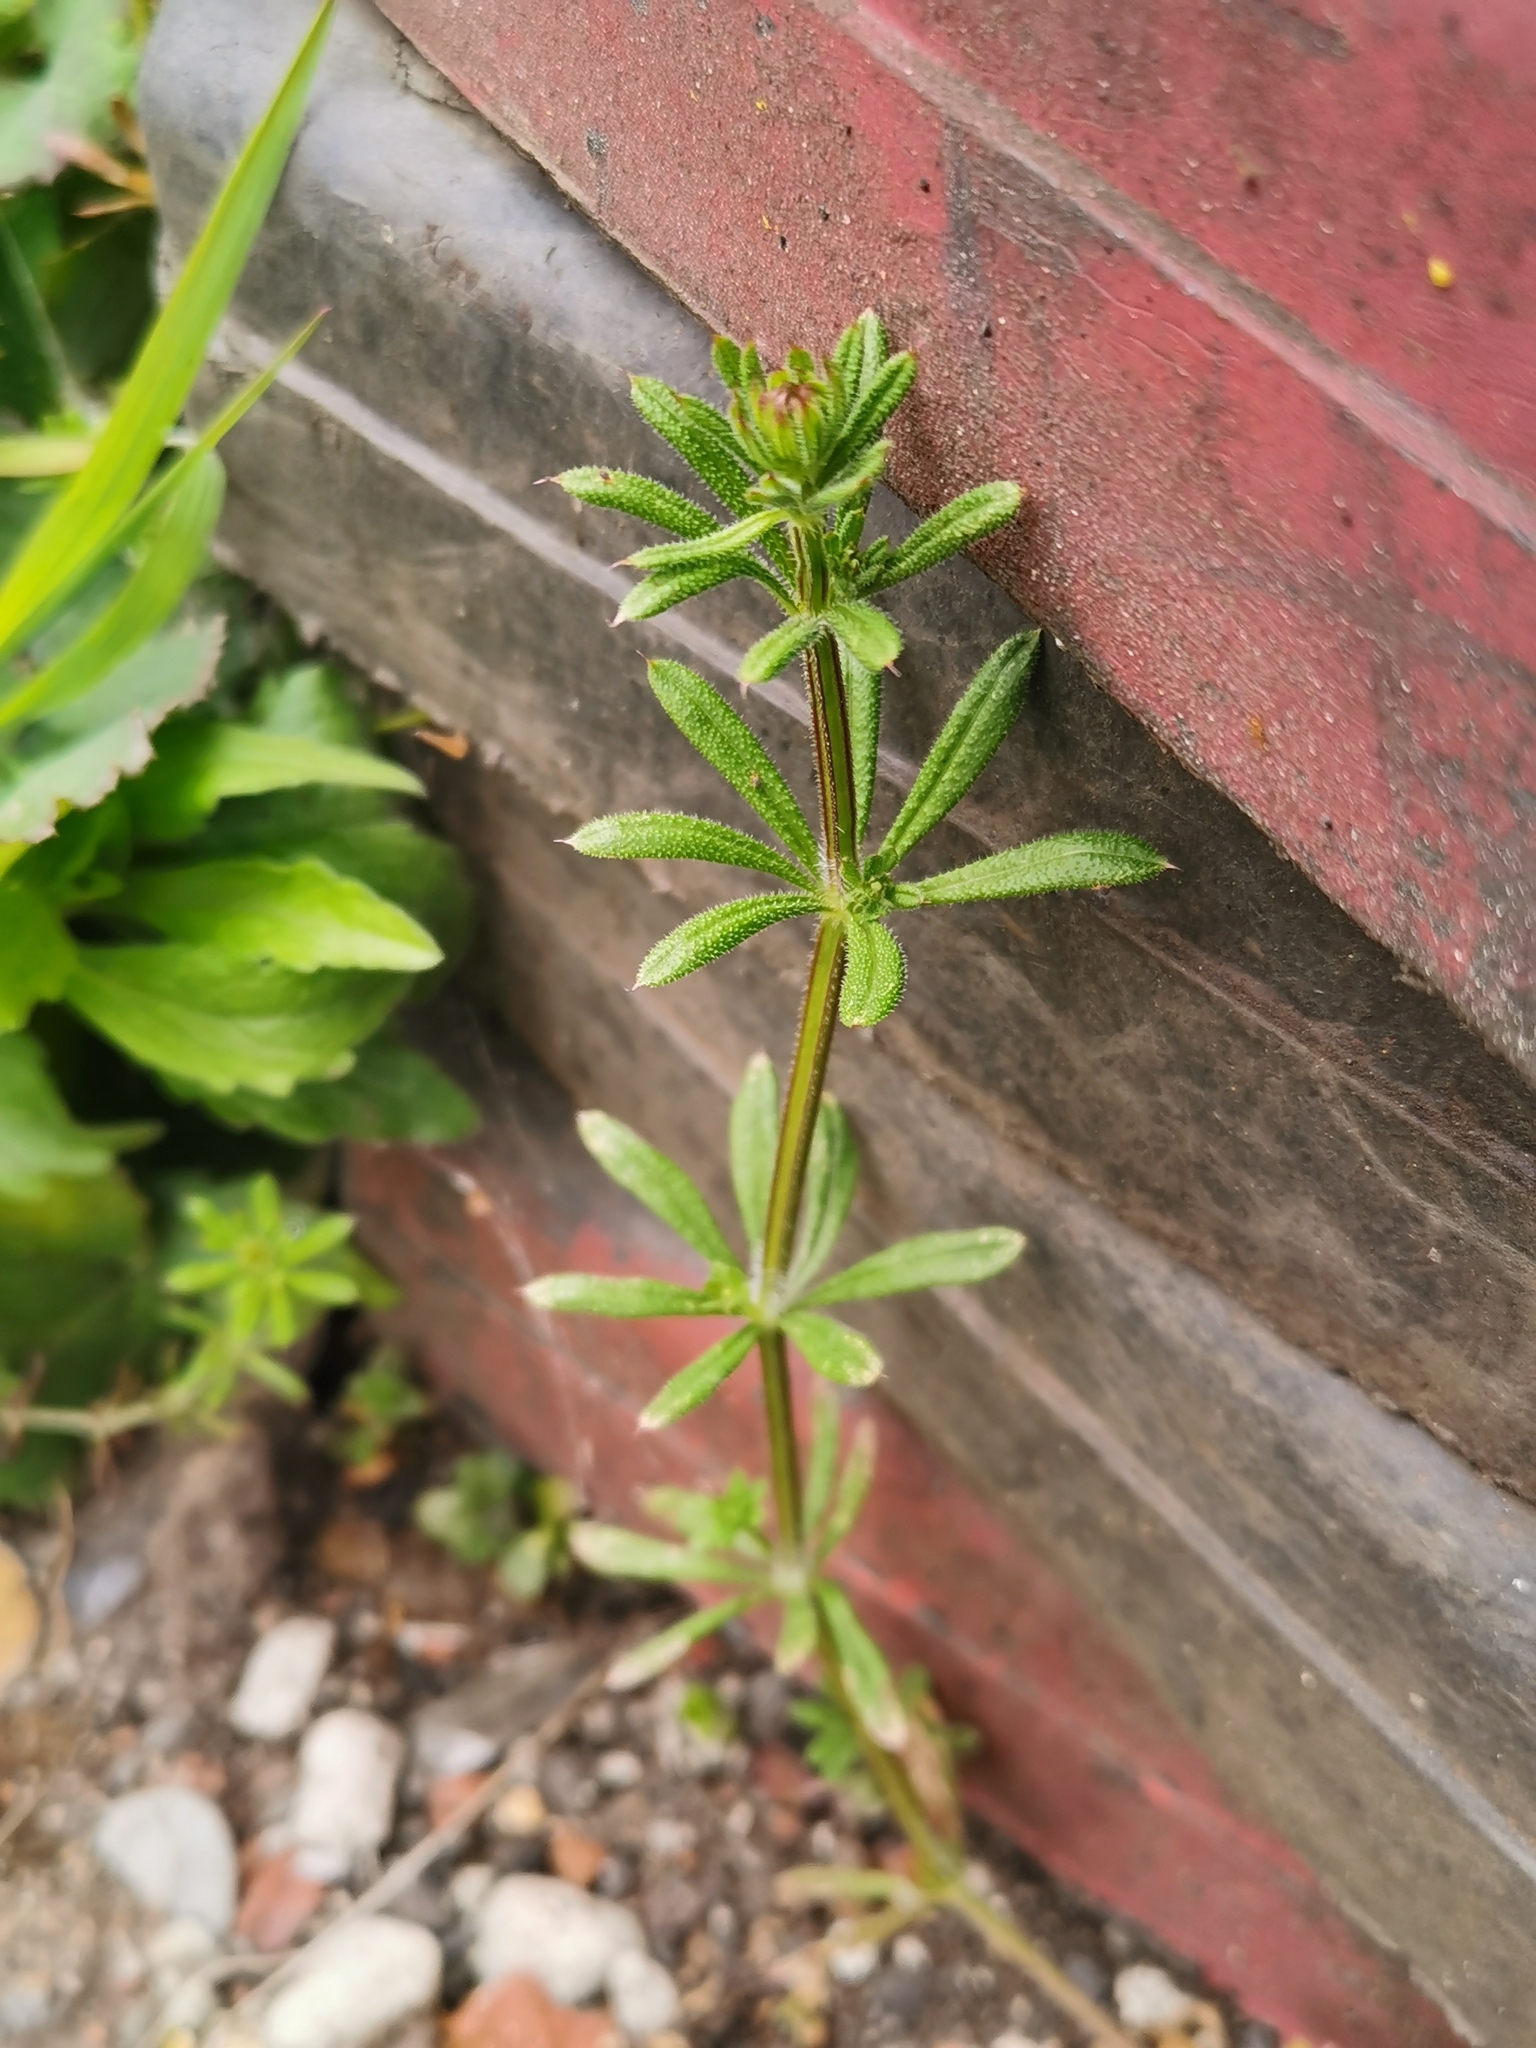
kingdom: Plantae
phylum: Tracheophyta
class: Magnoliopsida
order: Gentianales
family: Rubiaceae
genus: Galium
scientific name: Galium aparine
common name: Cleavers
